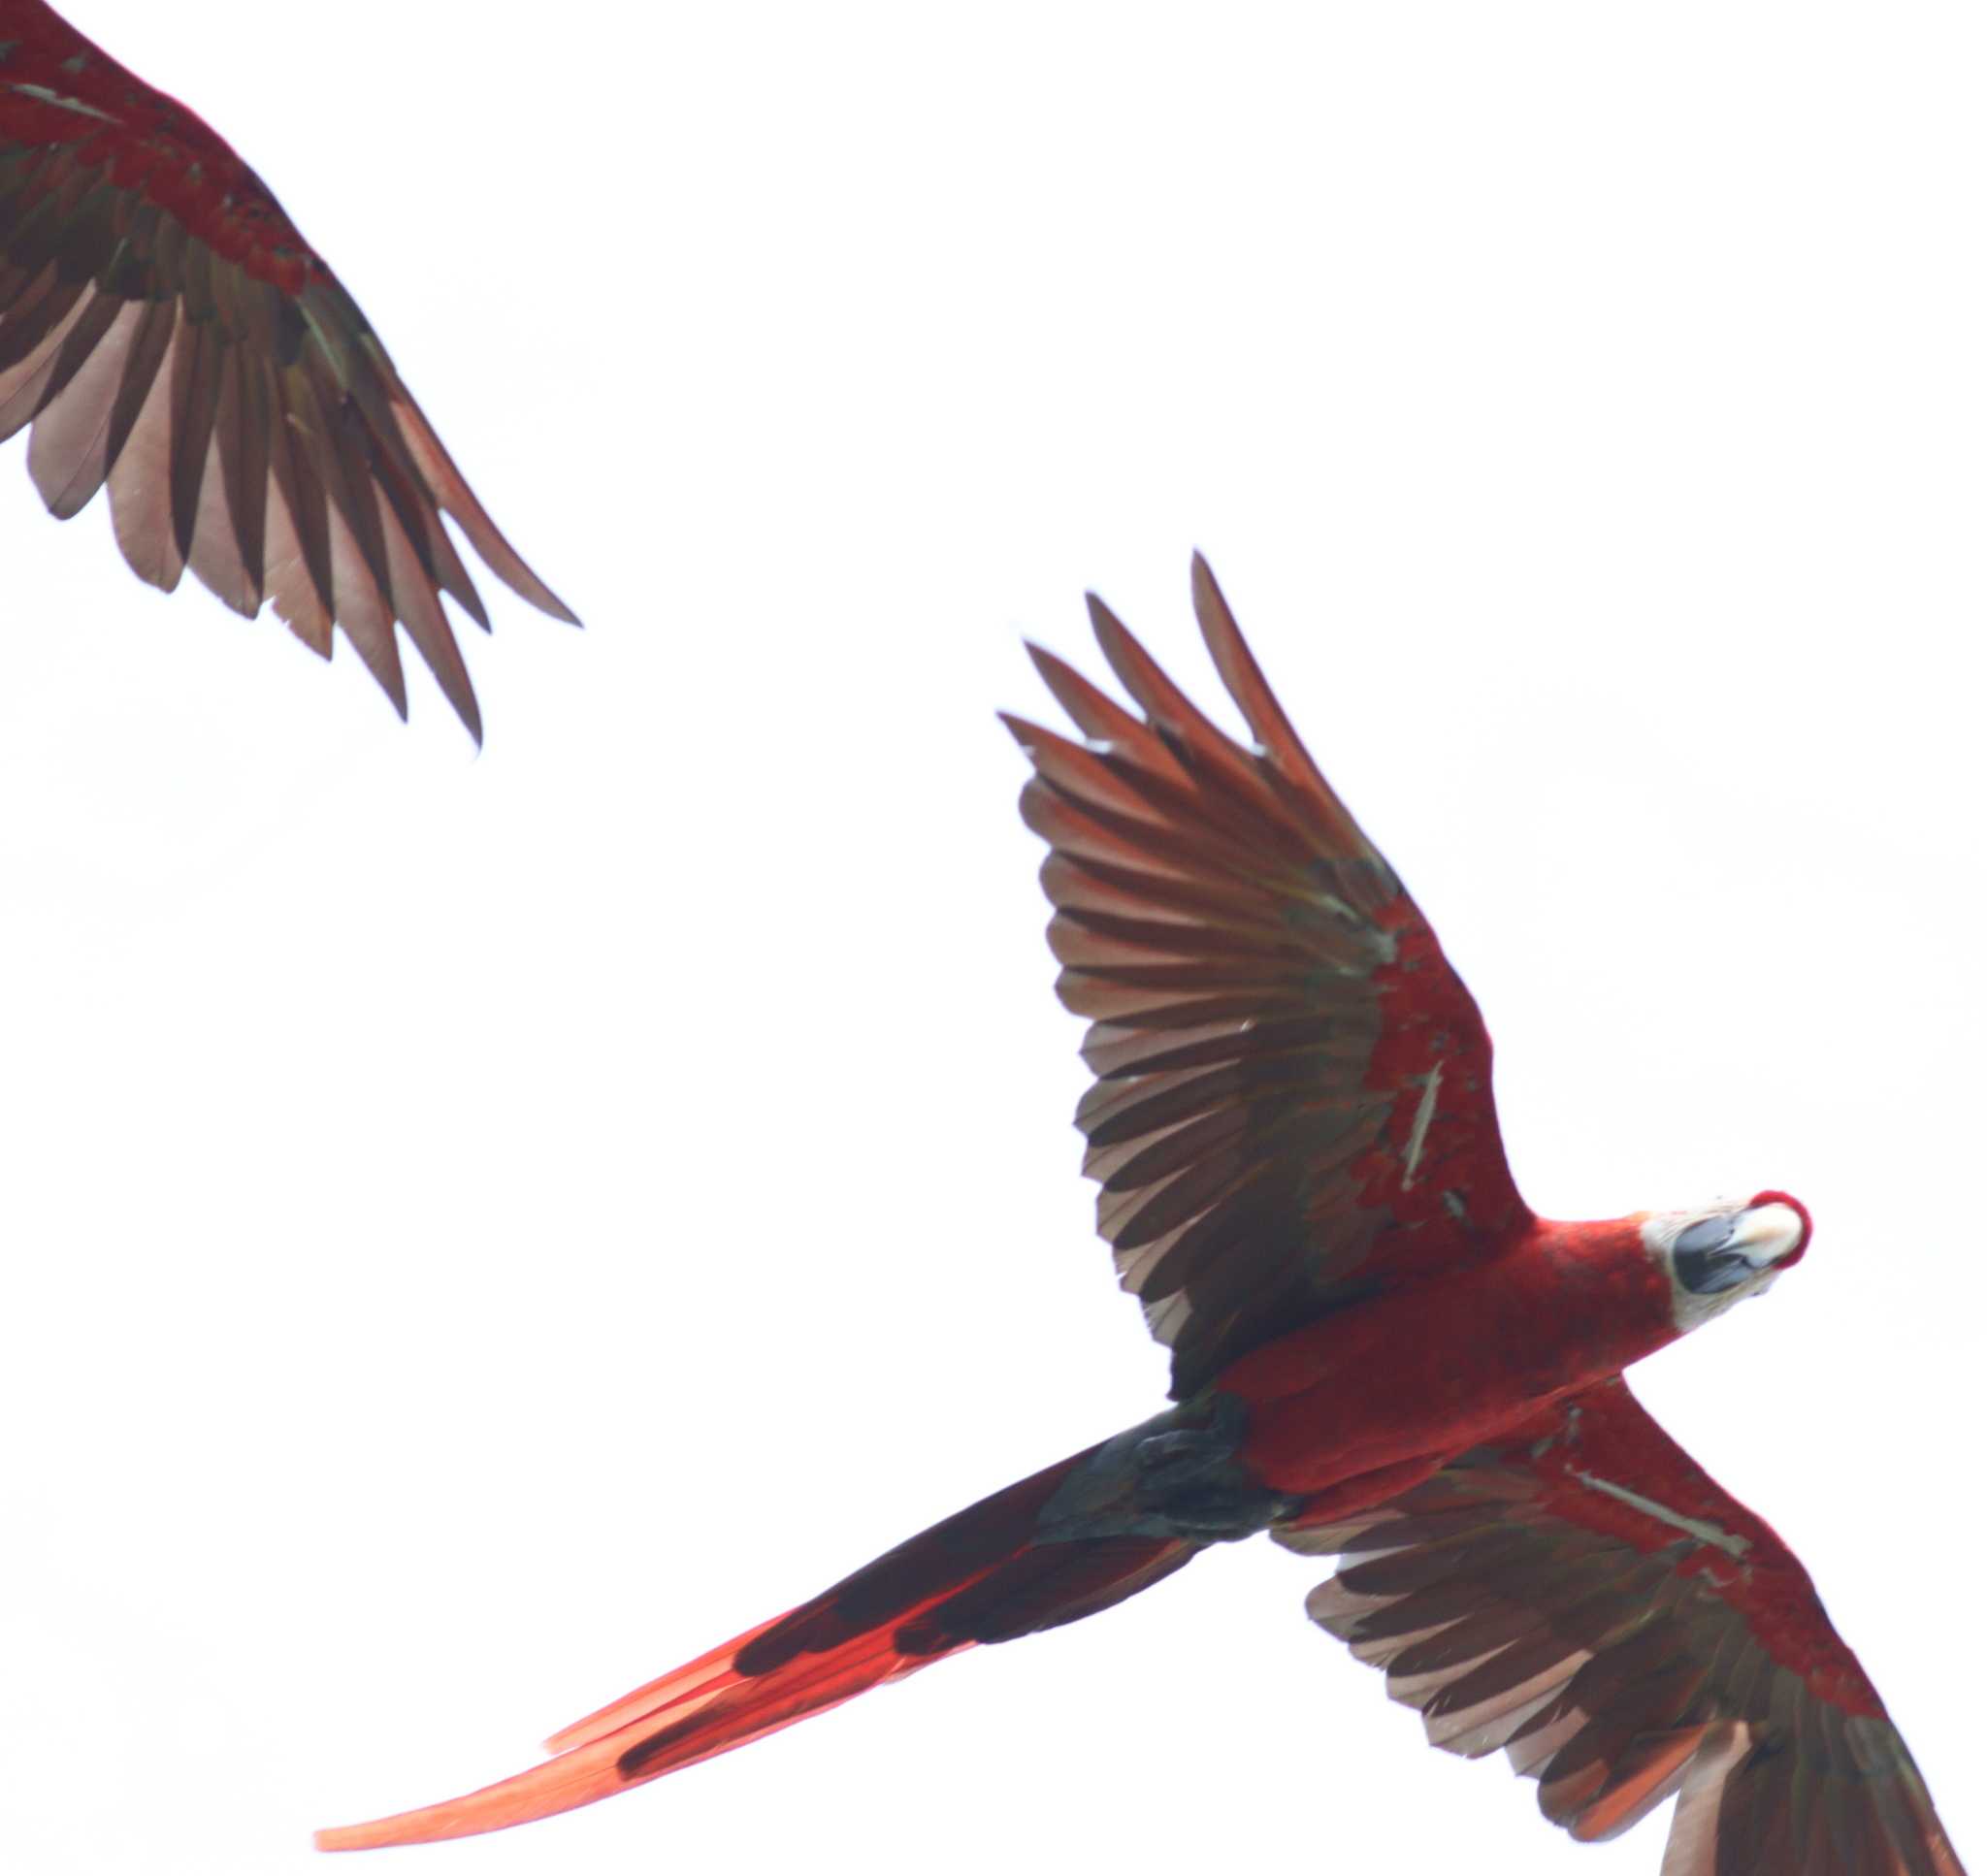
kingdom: Animalia
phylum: Chordata
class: Aves
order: Psittaciformes
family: Psittacidae
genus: Ara
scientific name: Ara macao
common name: Scarlet macaw
